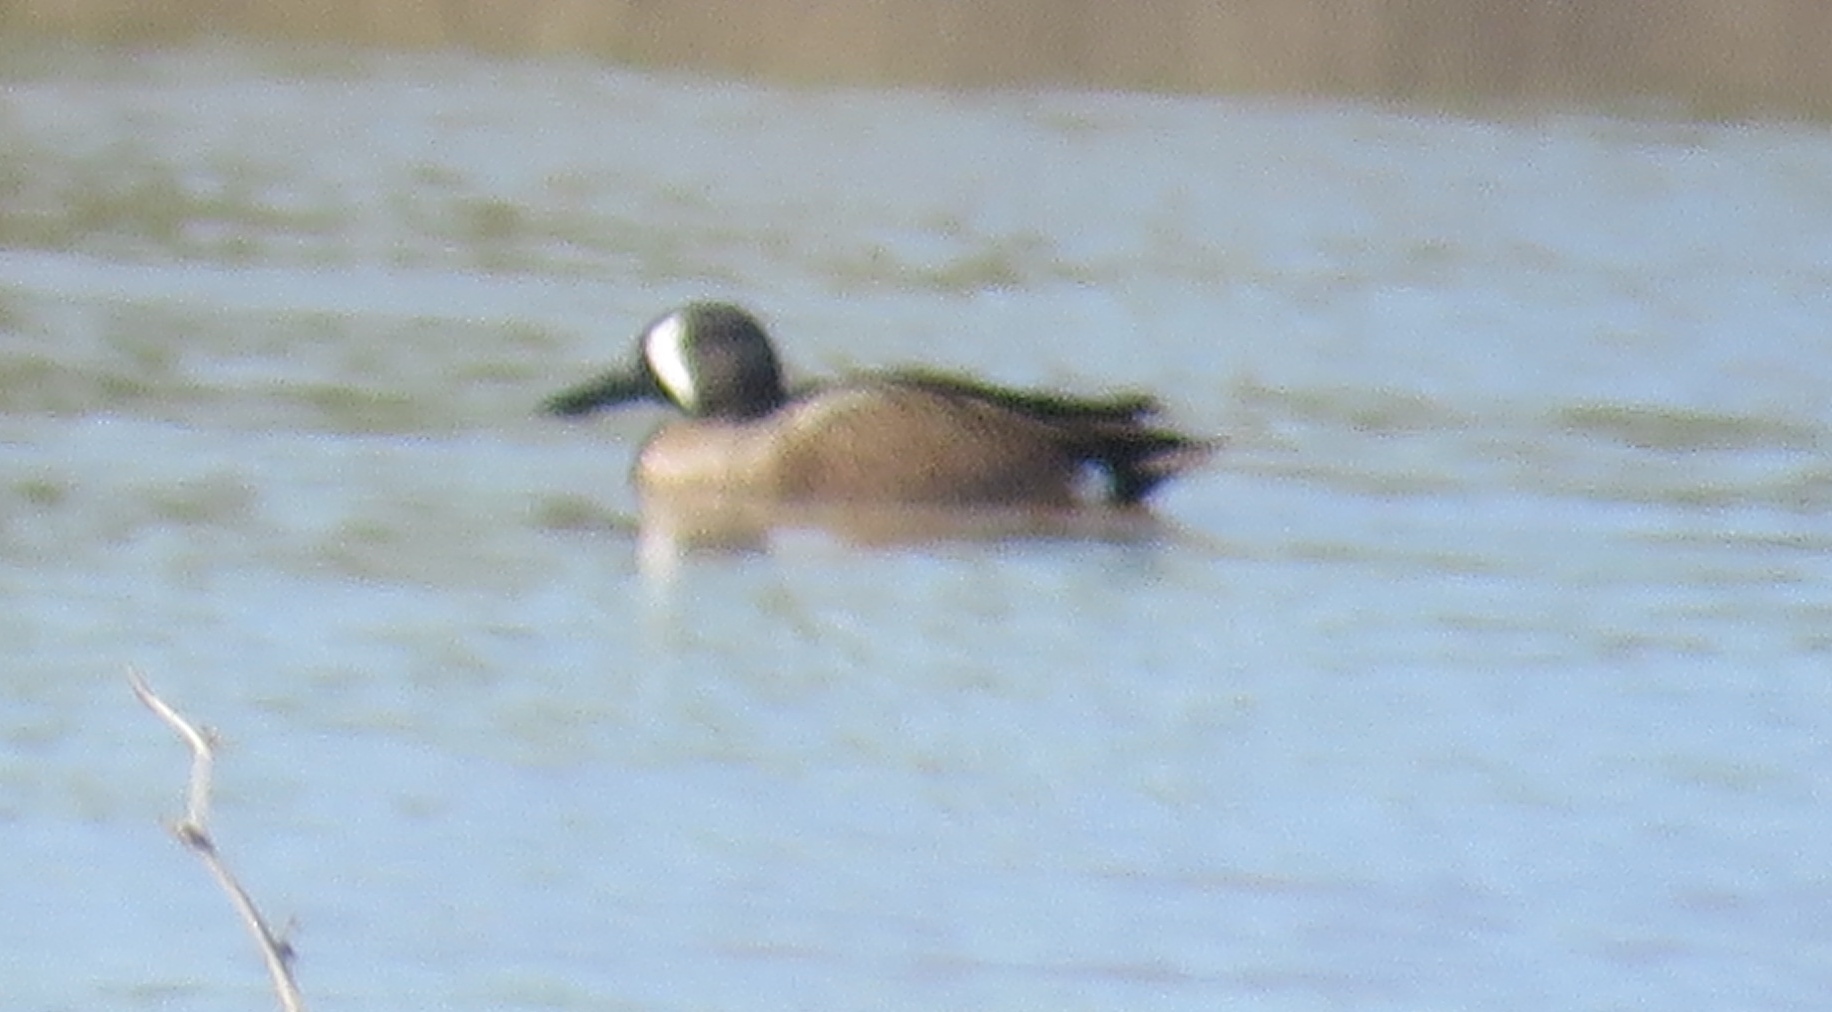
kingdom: Animalia
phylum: Chordata
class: Aves
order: Anseriformes
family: Anatidae
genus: Spatula
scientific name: Spatula discors
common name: Blue-winged teal
